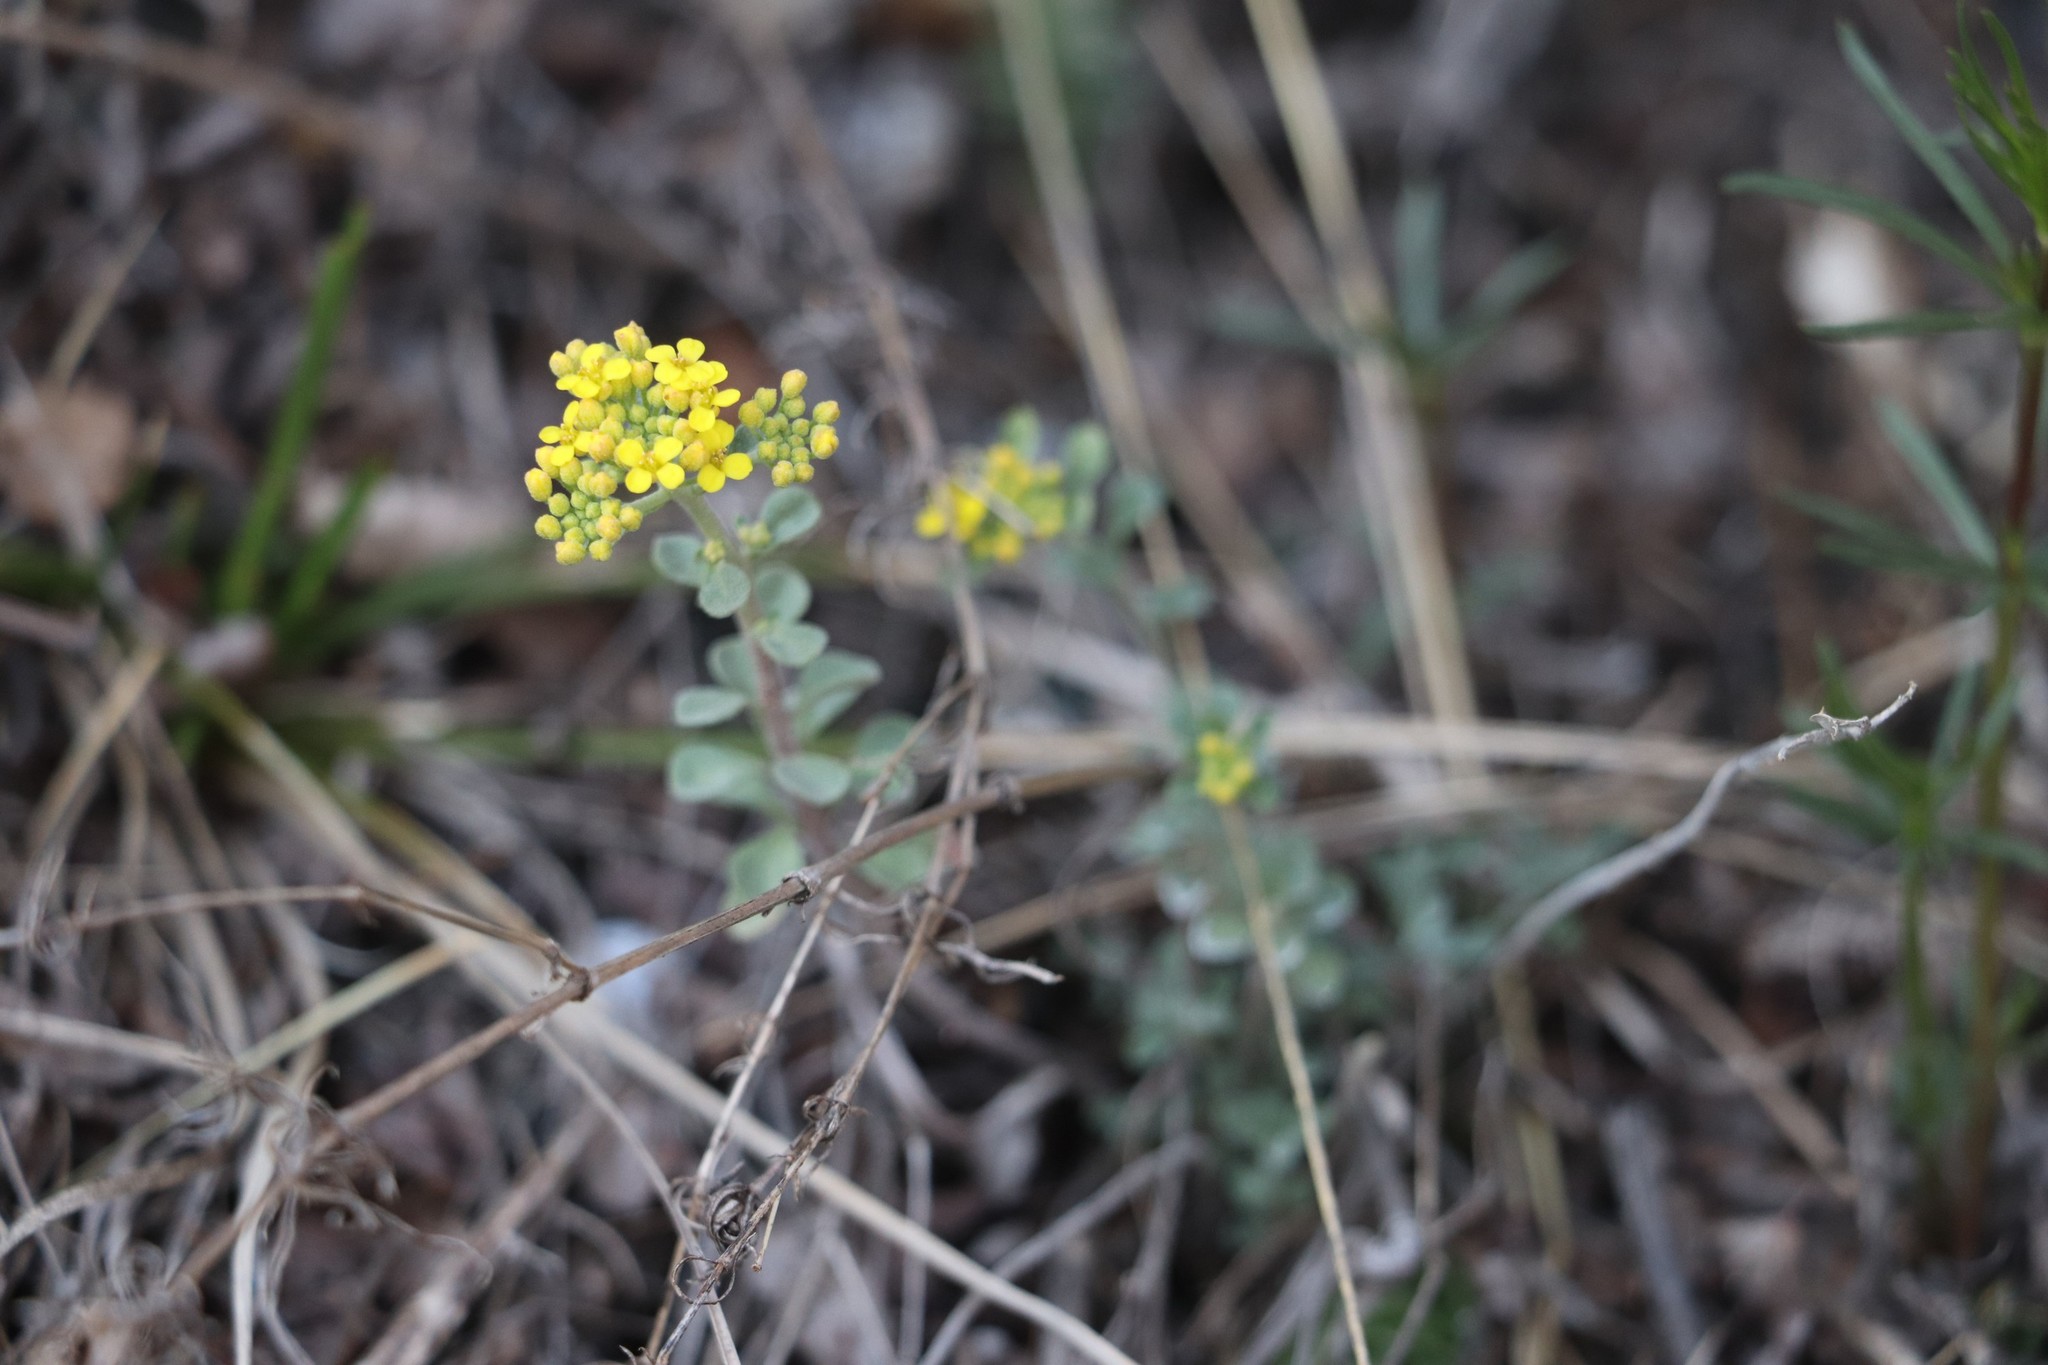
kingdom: Plantae
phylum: Tracheophyta
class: Magnoliopsida
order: Brassicales
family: Brassicaceae
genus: Odontarrhena
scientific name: Odontarrhena obovata
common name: American alyssum
